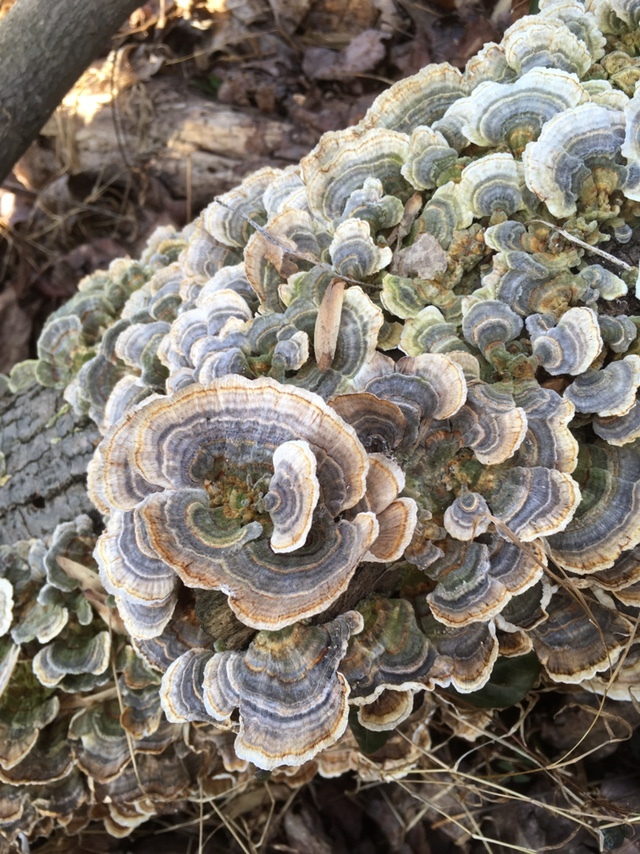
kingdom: Fungi
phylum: Basidiomycota
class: Agaricomycetes
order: Polyporales
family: Polyporaceae
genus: Trametes
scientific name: Trametes versicolor
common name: Turkeytail
